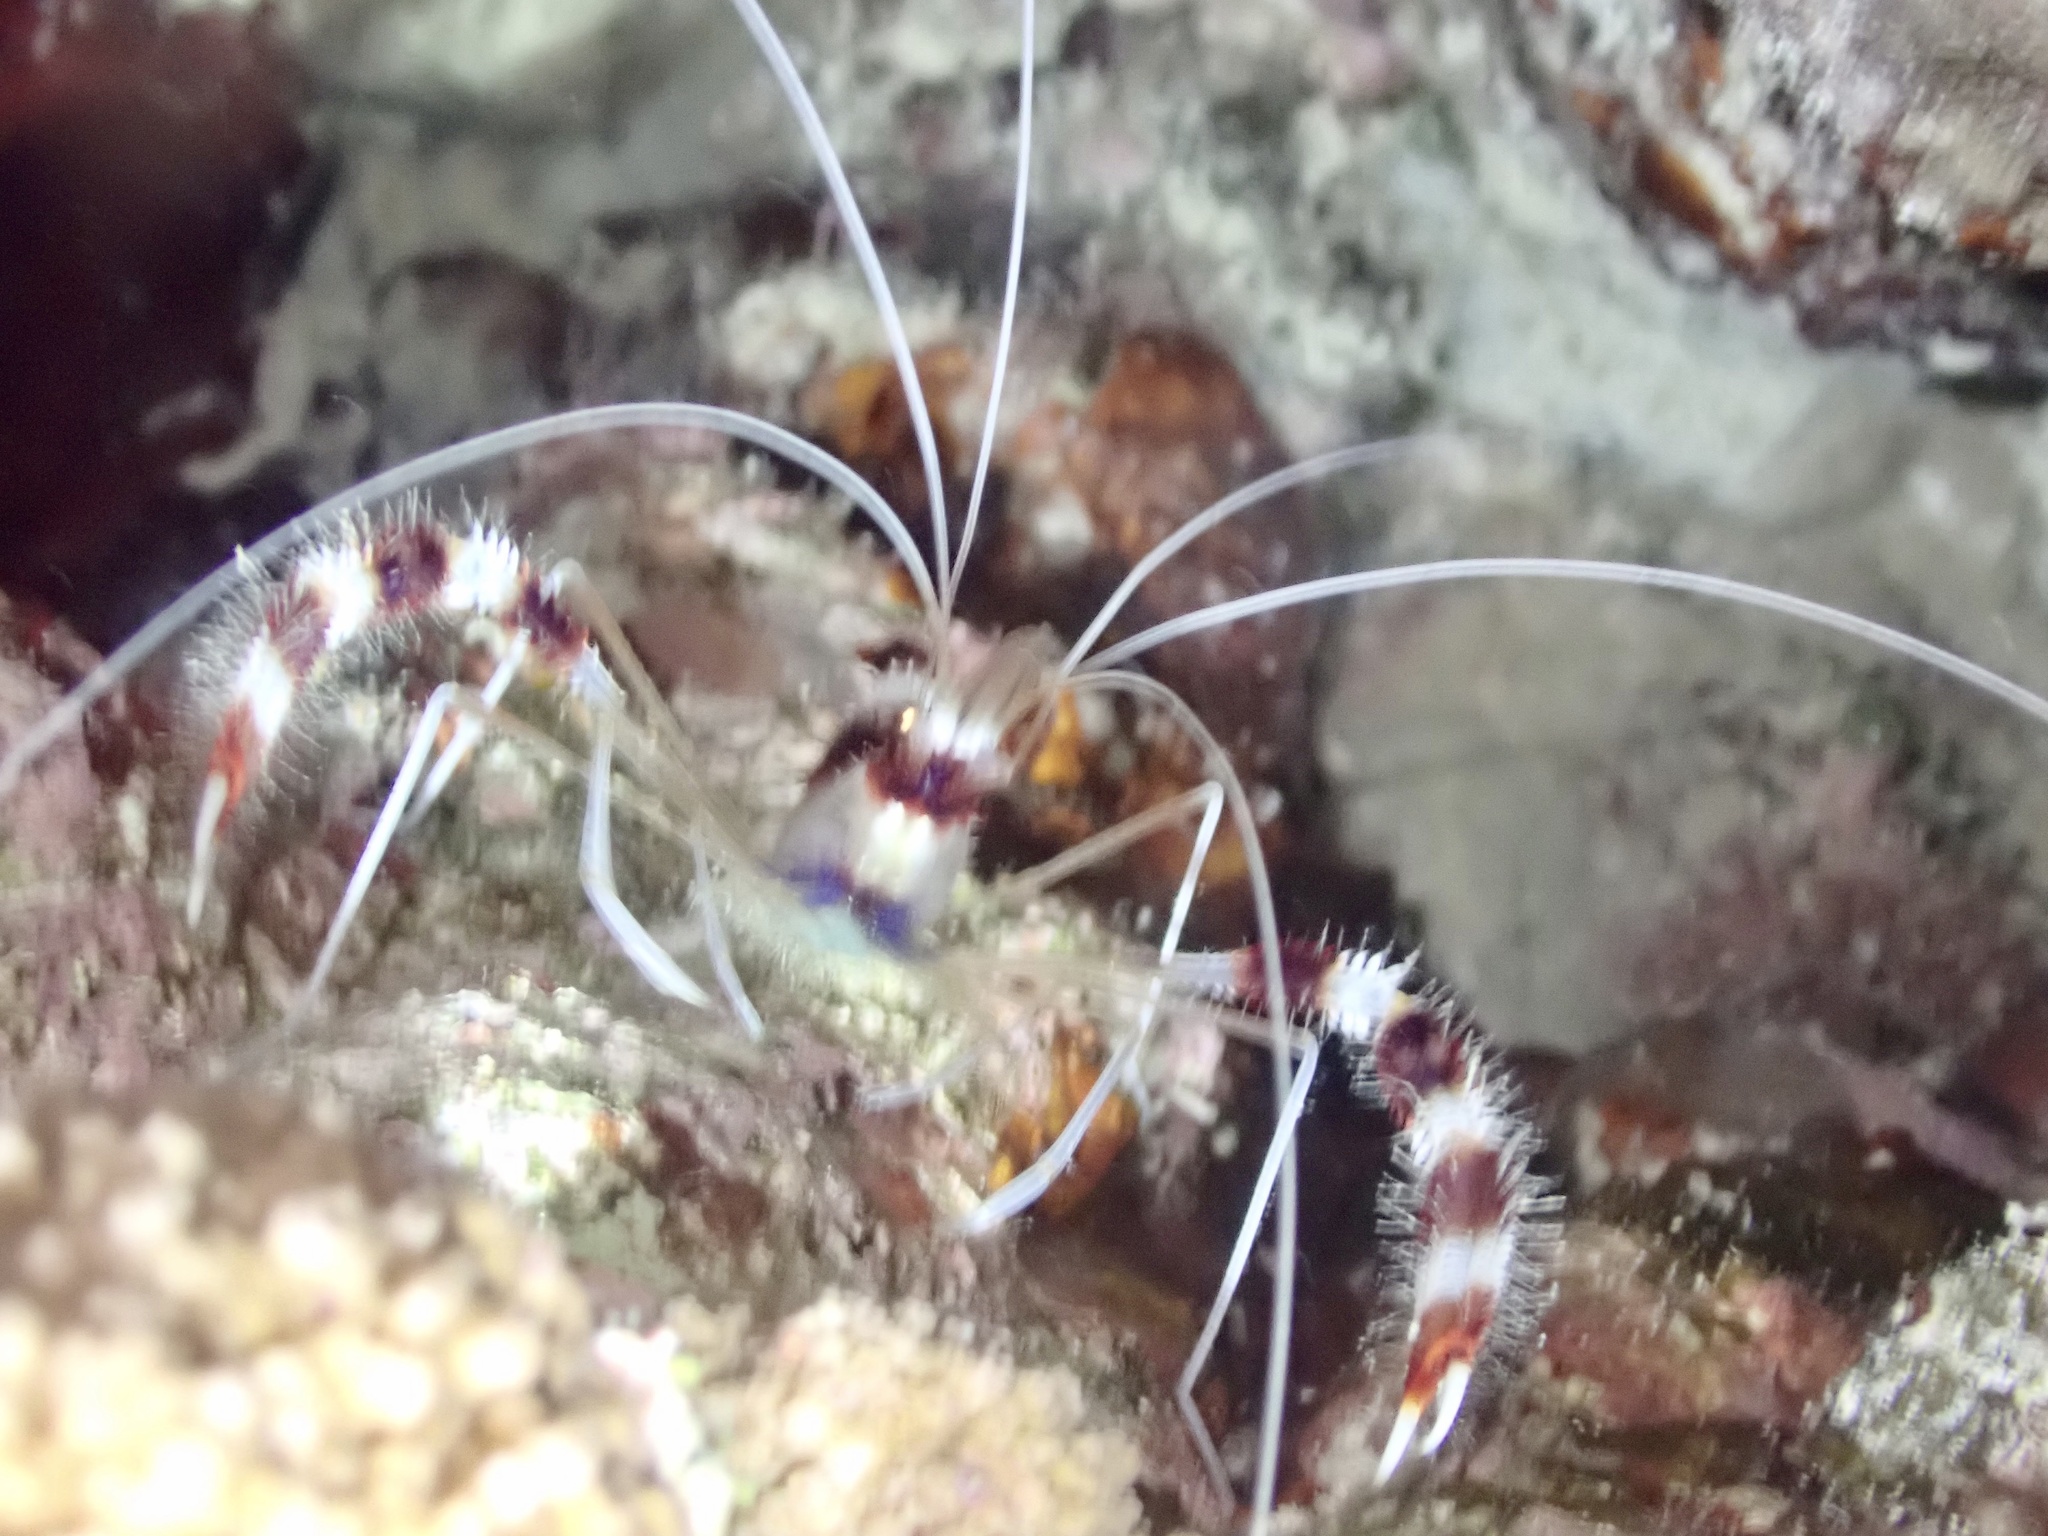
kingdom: Animalia
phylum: Arthropoda
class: Malacostraca
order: Decapoda
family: Stenopodidae
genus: Stenopus
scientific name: Stenopus hispidus
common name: Banded coral shrimp
